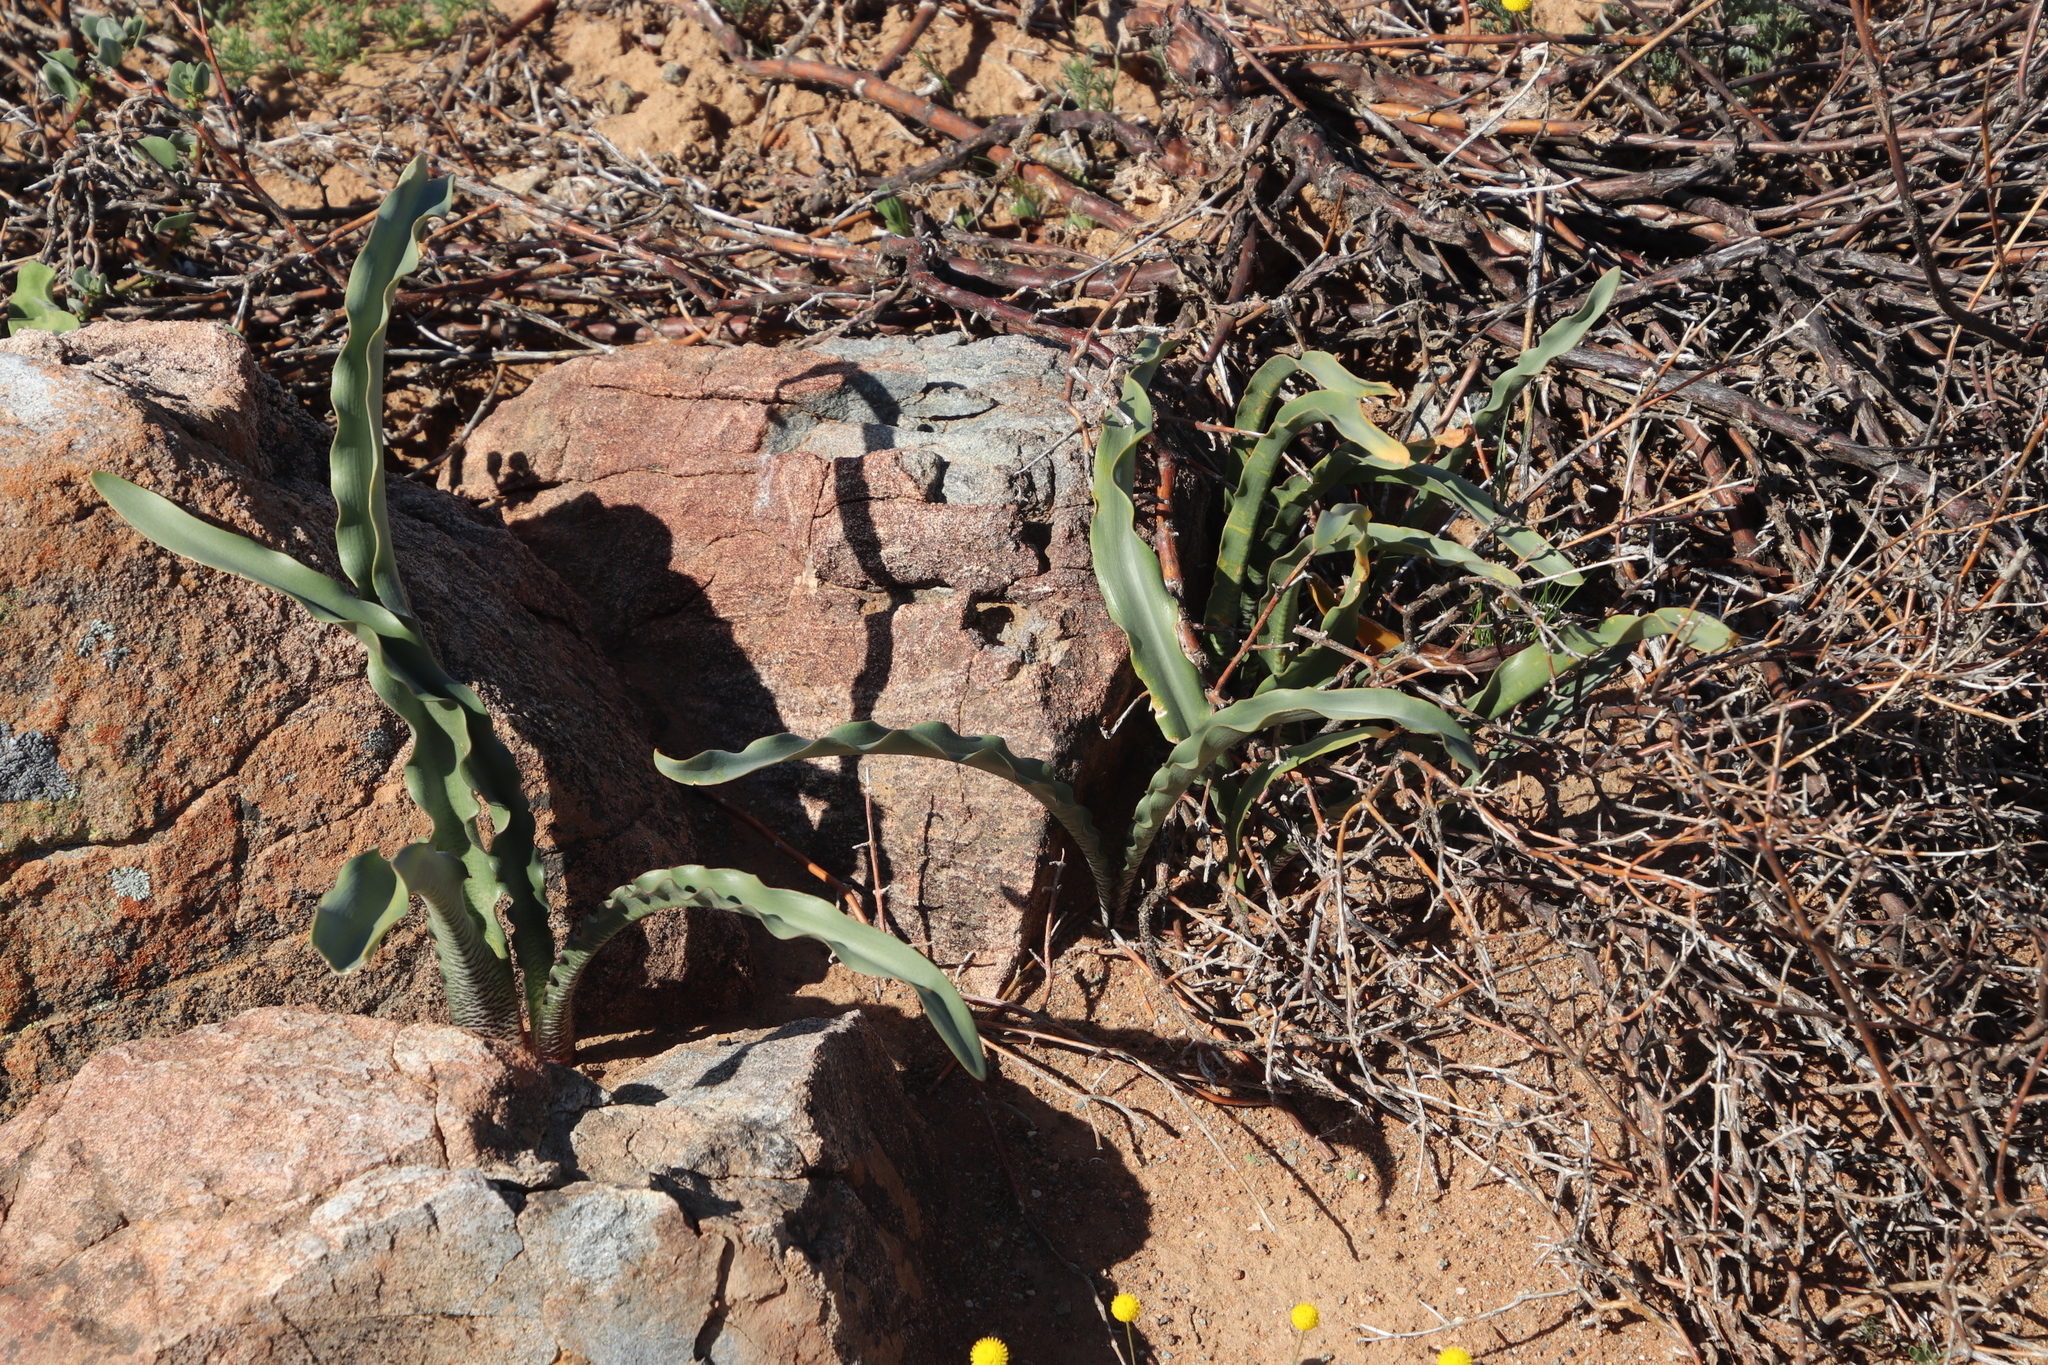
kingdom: Plantae
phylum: Tracheophyta
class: Liliopsida
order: Asparagales
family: Amaryllidaceae
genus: Haemanthus
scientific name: Haemanthus crispus
